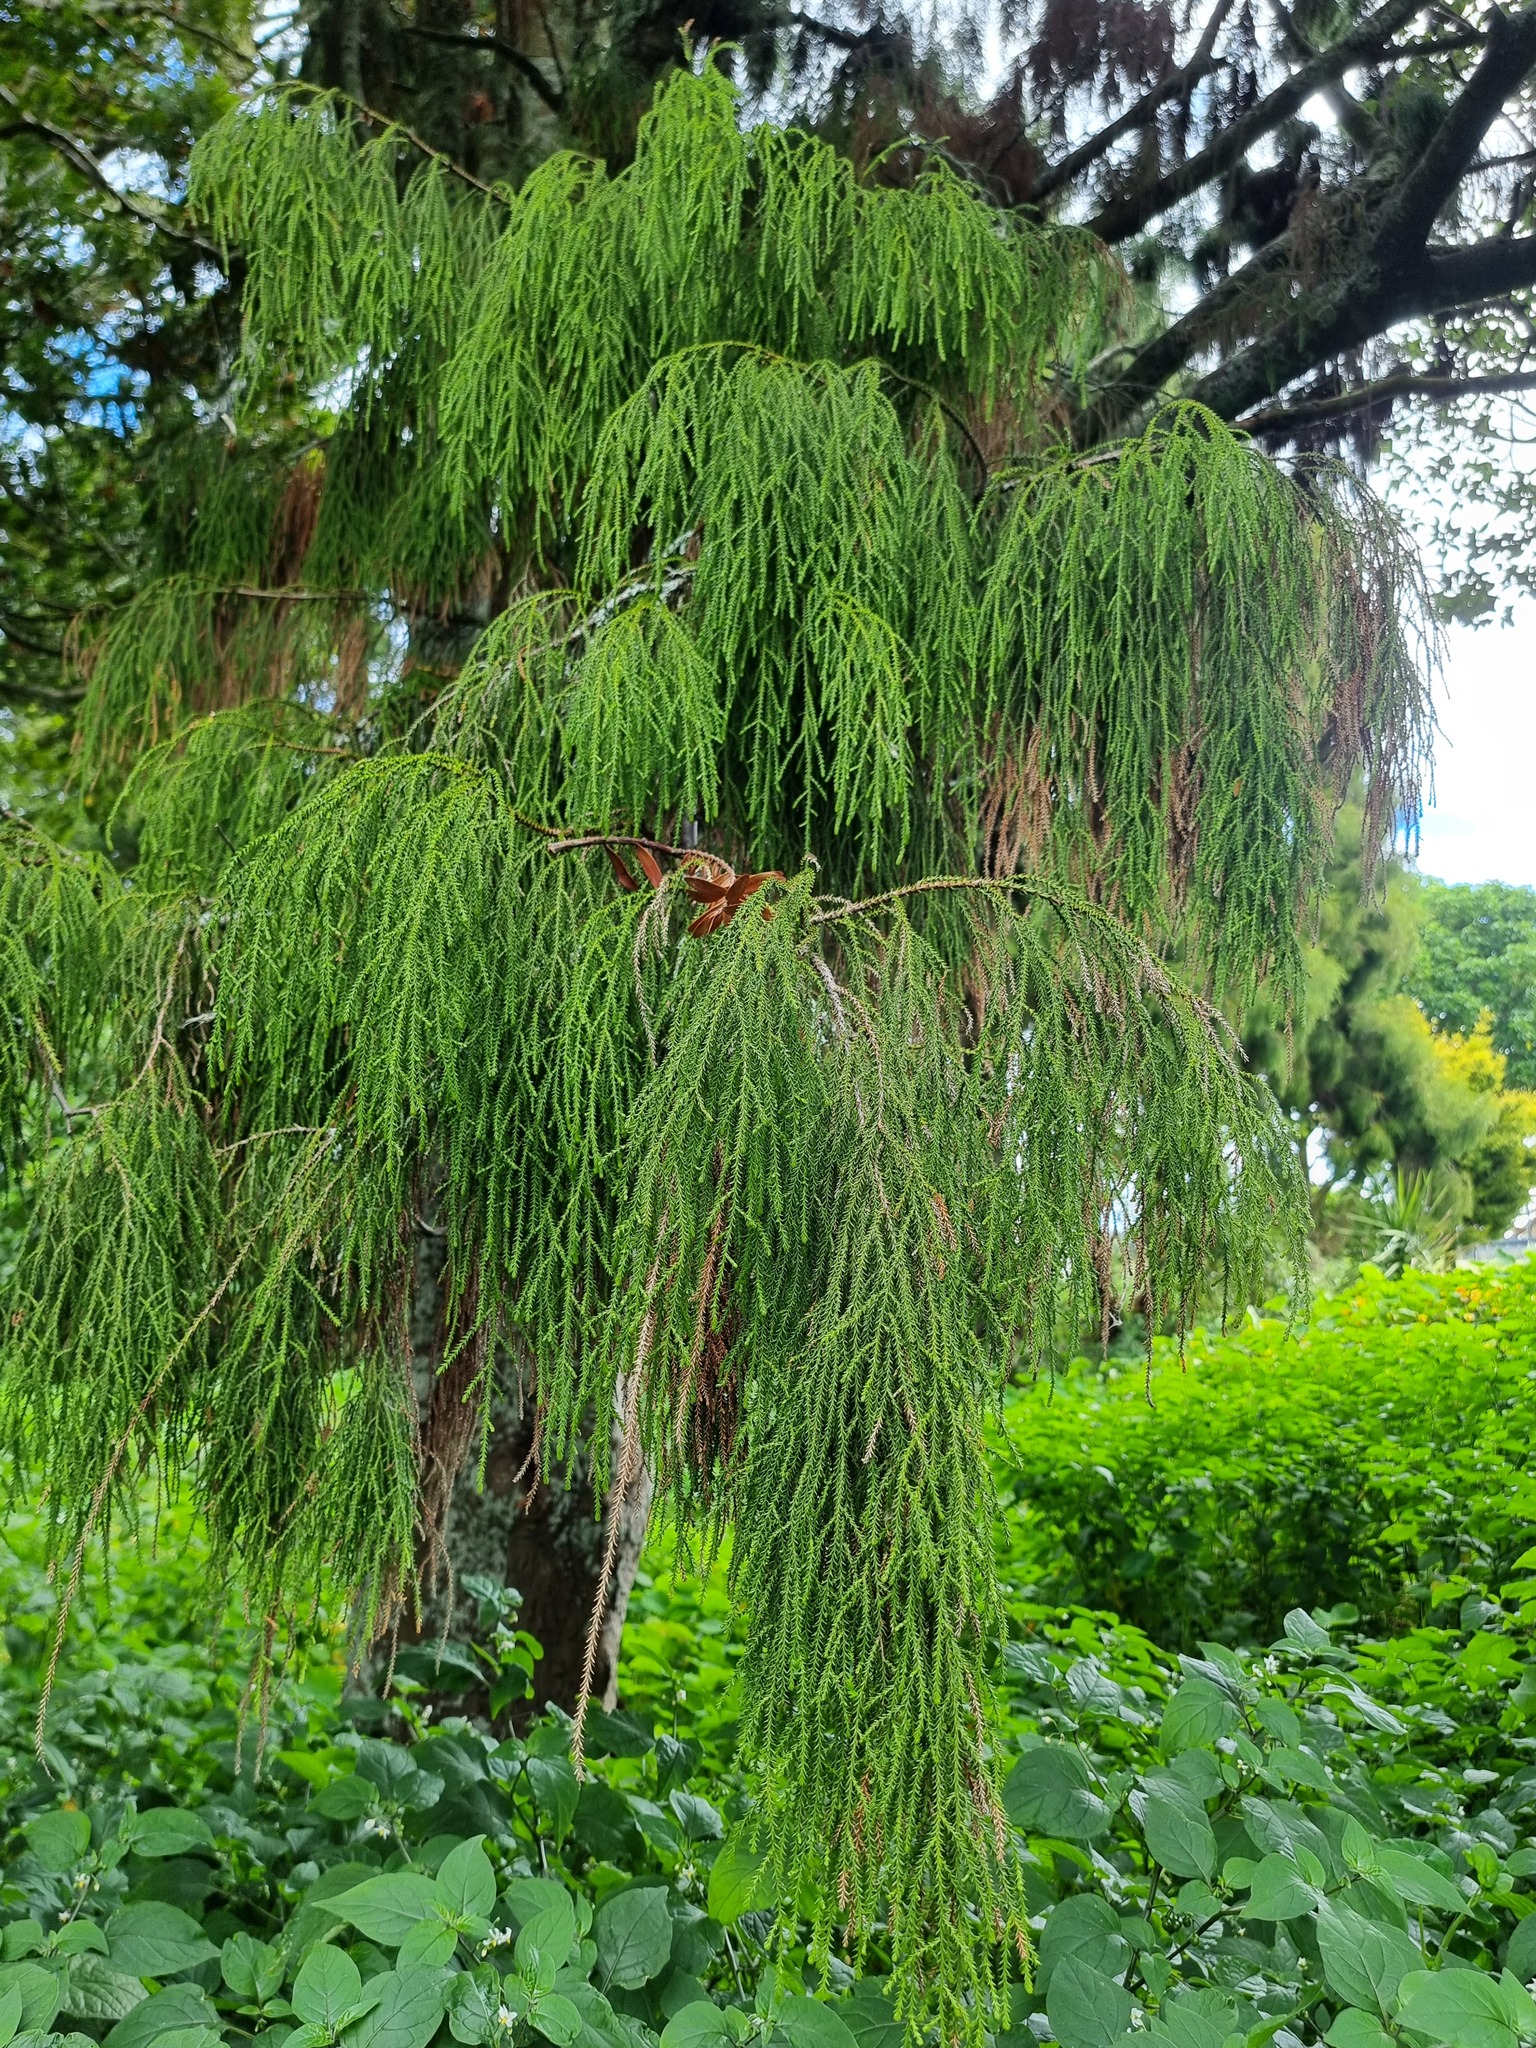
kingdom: Plantae
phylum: Tracheophyta
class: Pinopsida
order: Pinales
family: Podocarpaceae
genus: Dacrydium
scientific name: Dacrydium cupressinum
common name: Red pine
